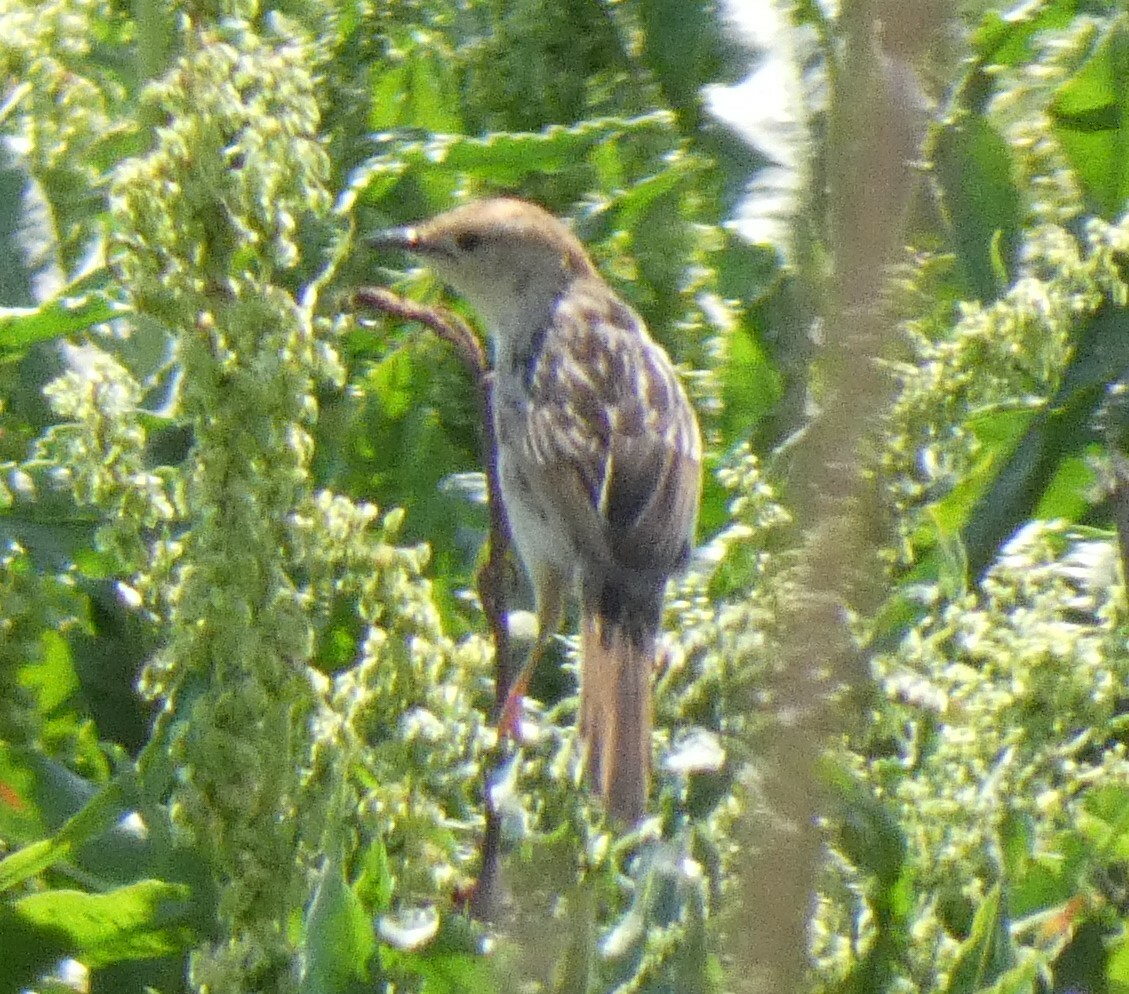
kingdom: Animalia
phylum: Chordata
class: Aves
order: Passeriformes
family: Cisticolidae
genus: Cisticola
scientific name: Cisticola tinniens
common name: Levaillant's cisticola
